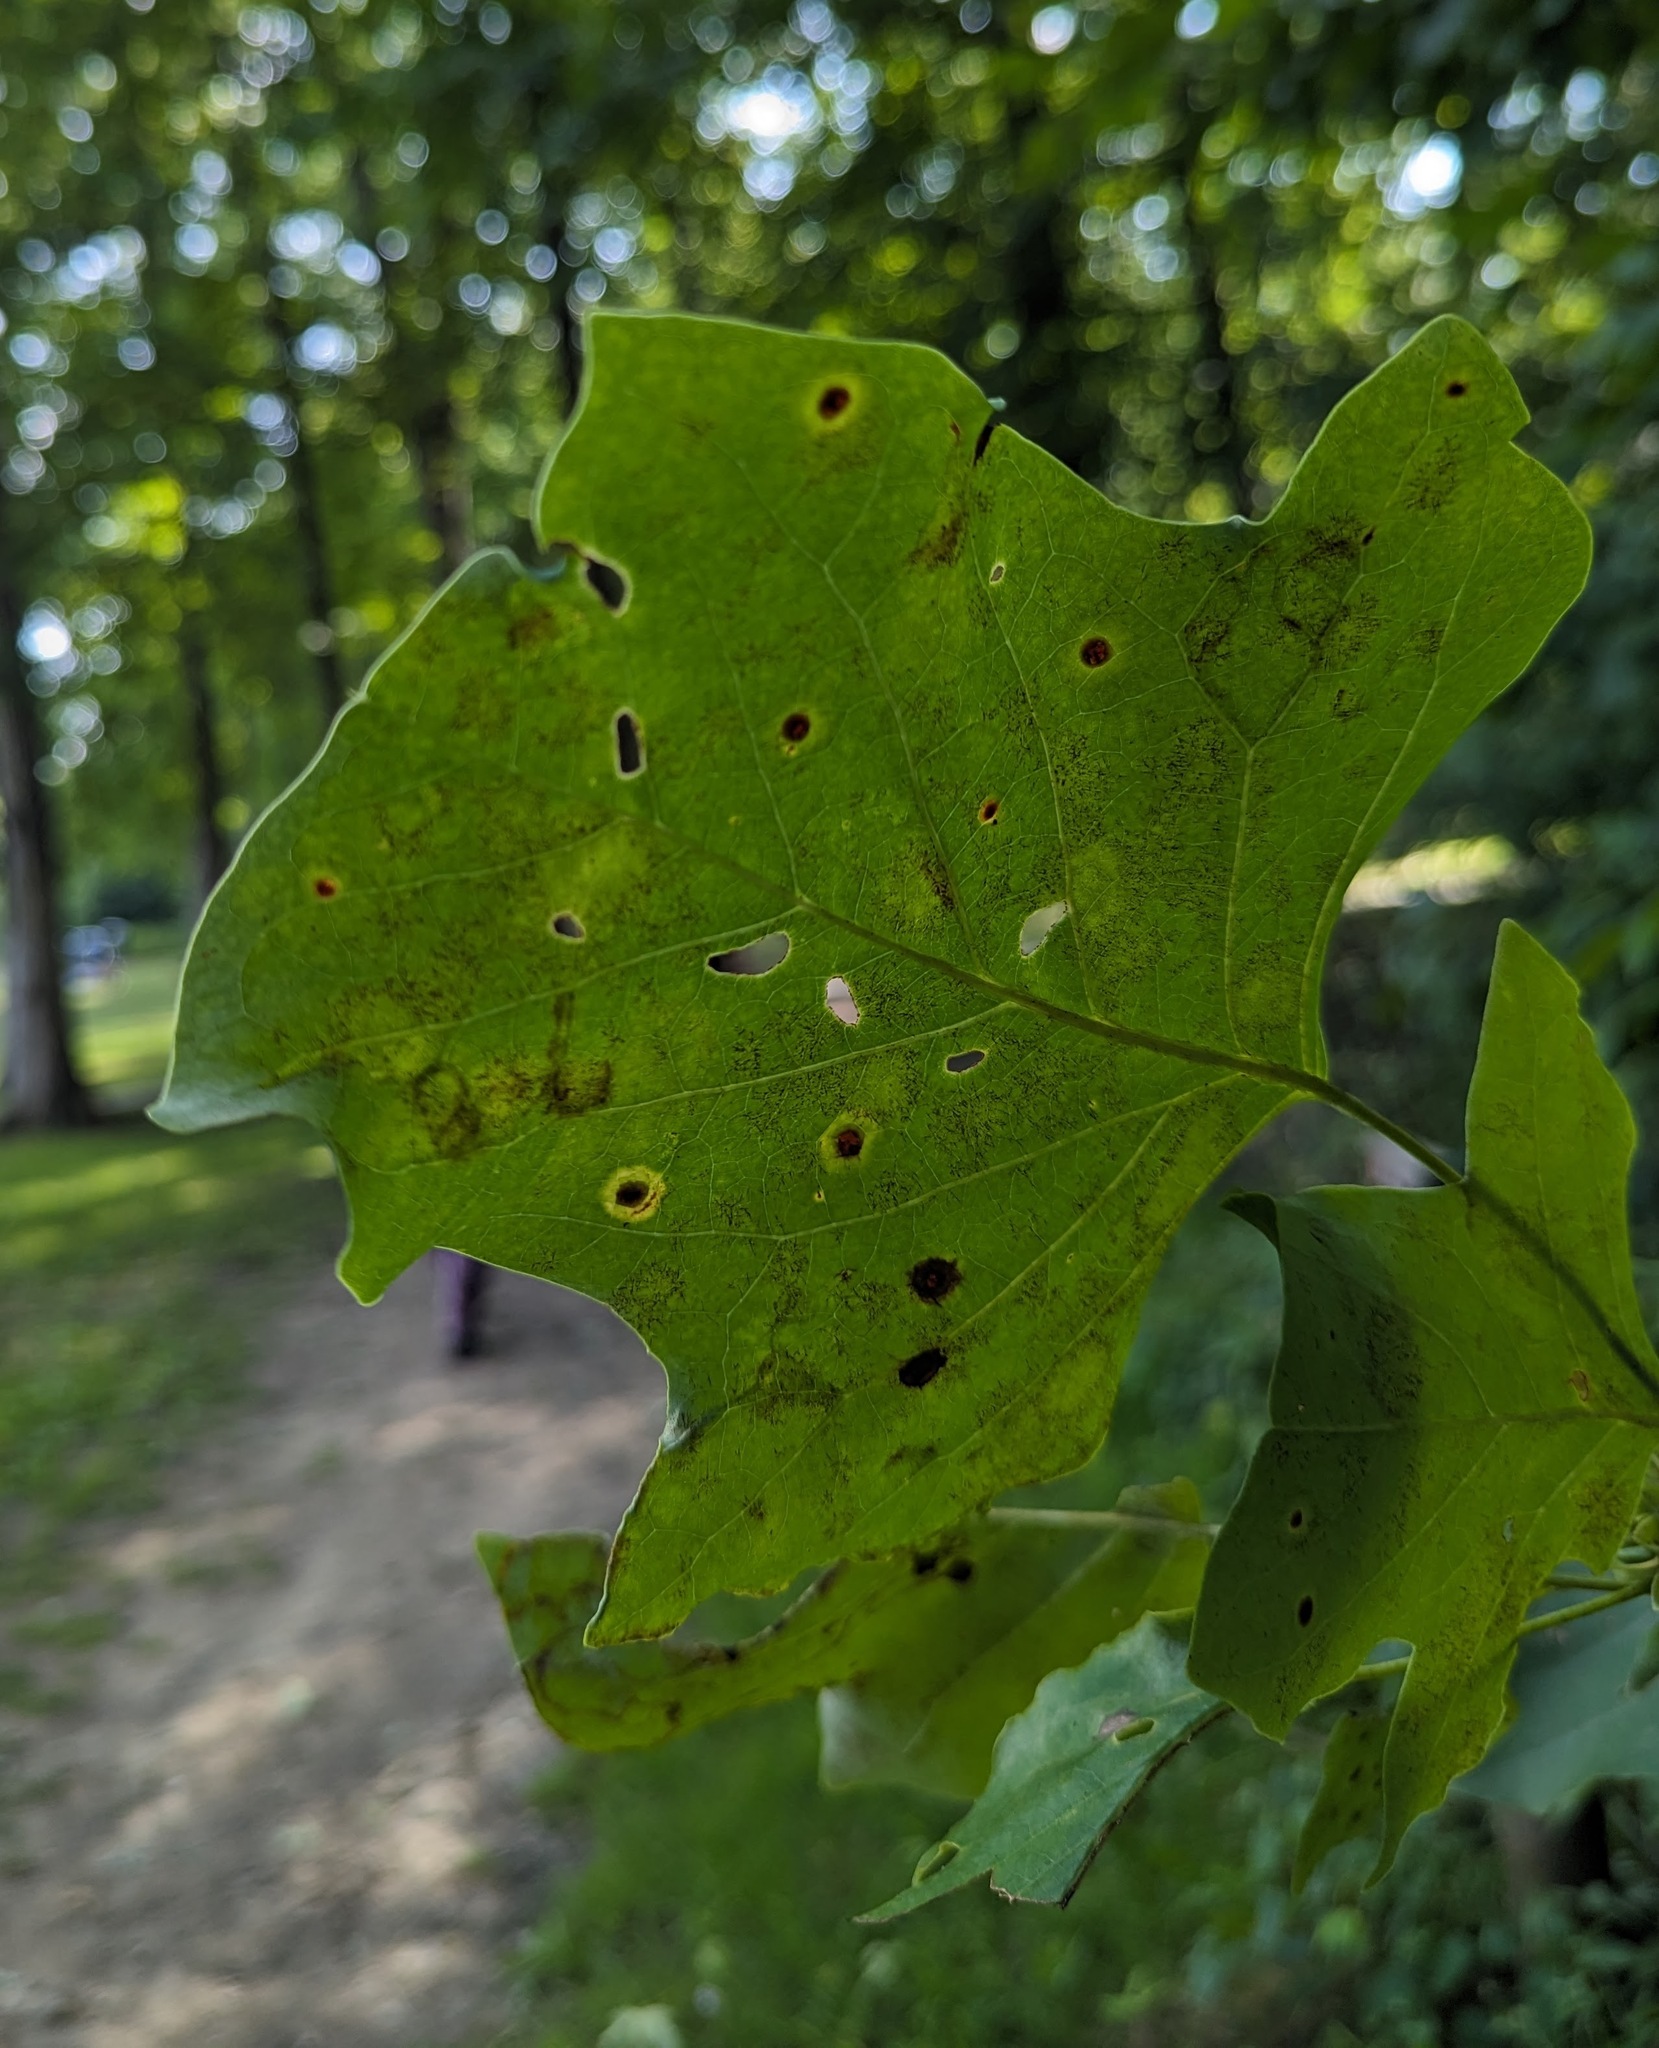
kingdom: Animalia
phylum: Arthropoda
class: Insecta
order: Lepidoptera
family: Gracillariidae
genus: Phyllocnistis
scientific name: Phyllocnistis liriodendronella
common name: Tulip tree leaf miner
